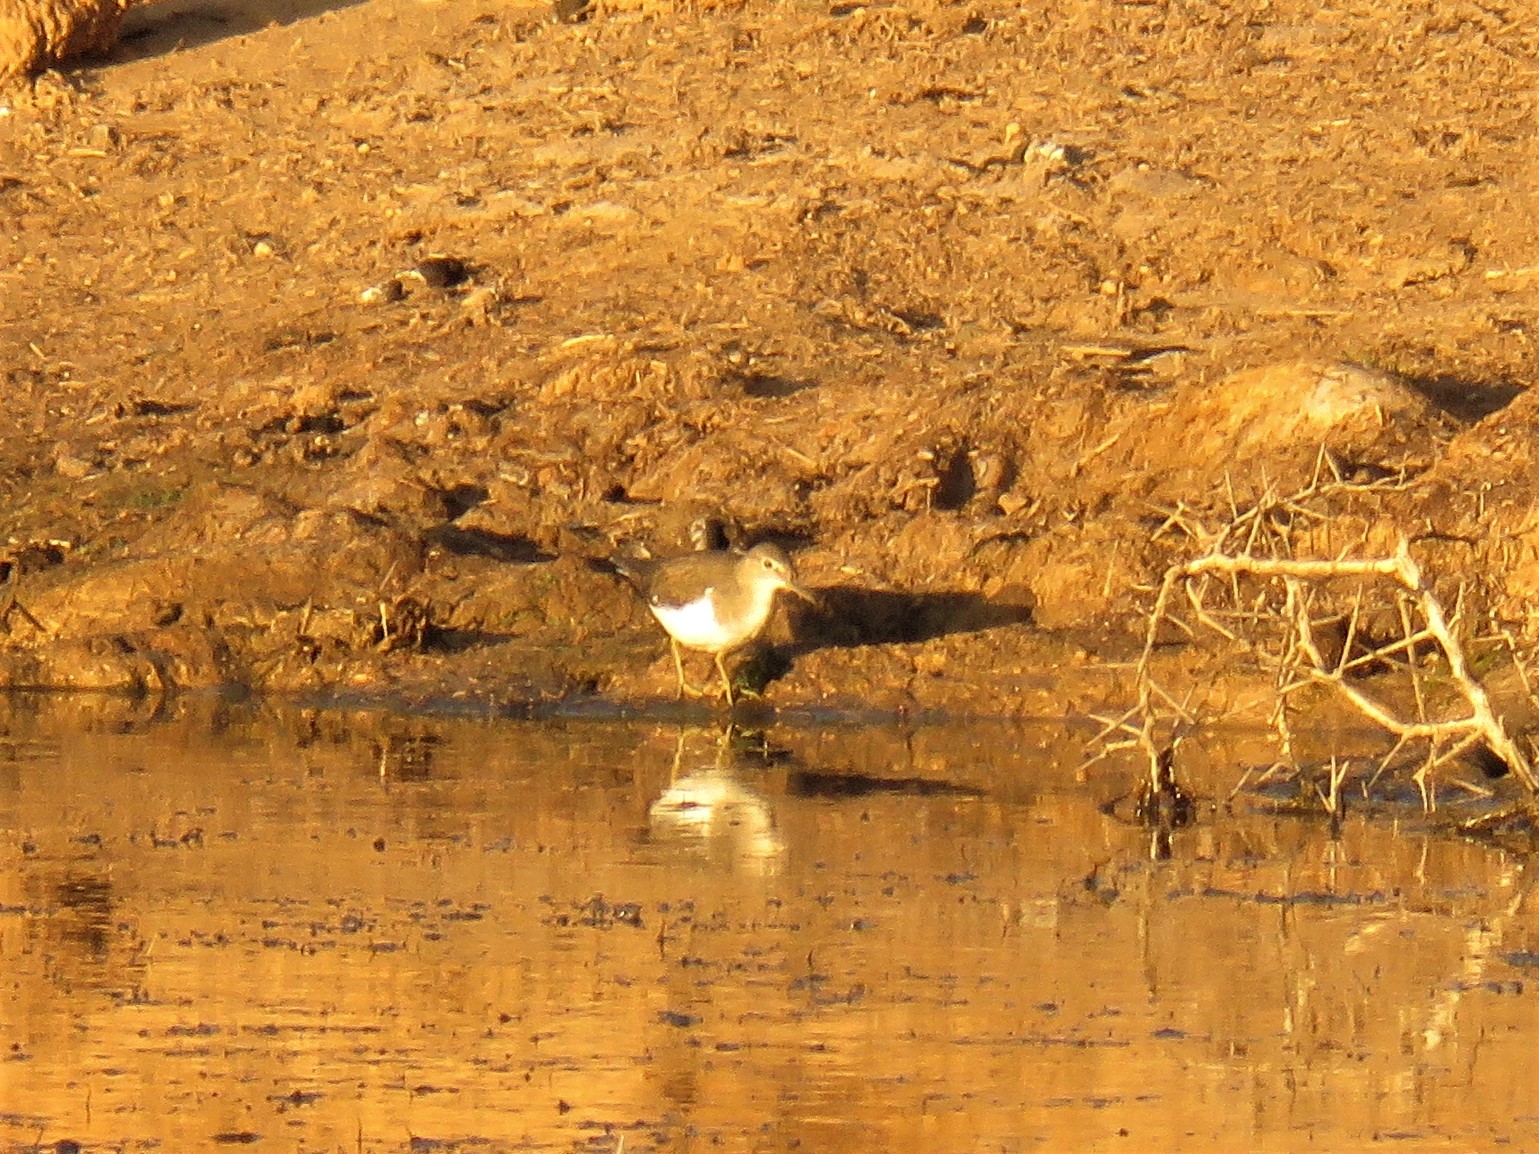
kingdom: Animalia
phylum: Chordata
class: Aves
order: Charadriiformes
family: Scolopacidae
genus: Actitis
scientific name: Actitis hypoleucos
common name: Common sandpiper
